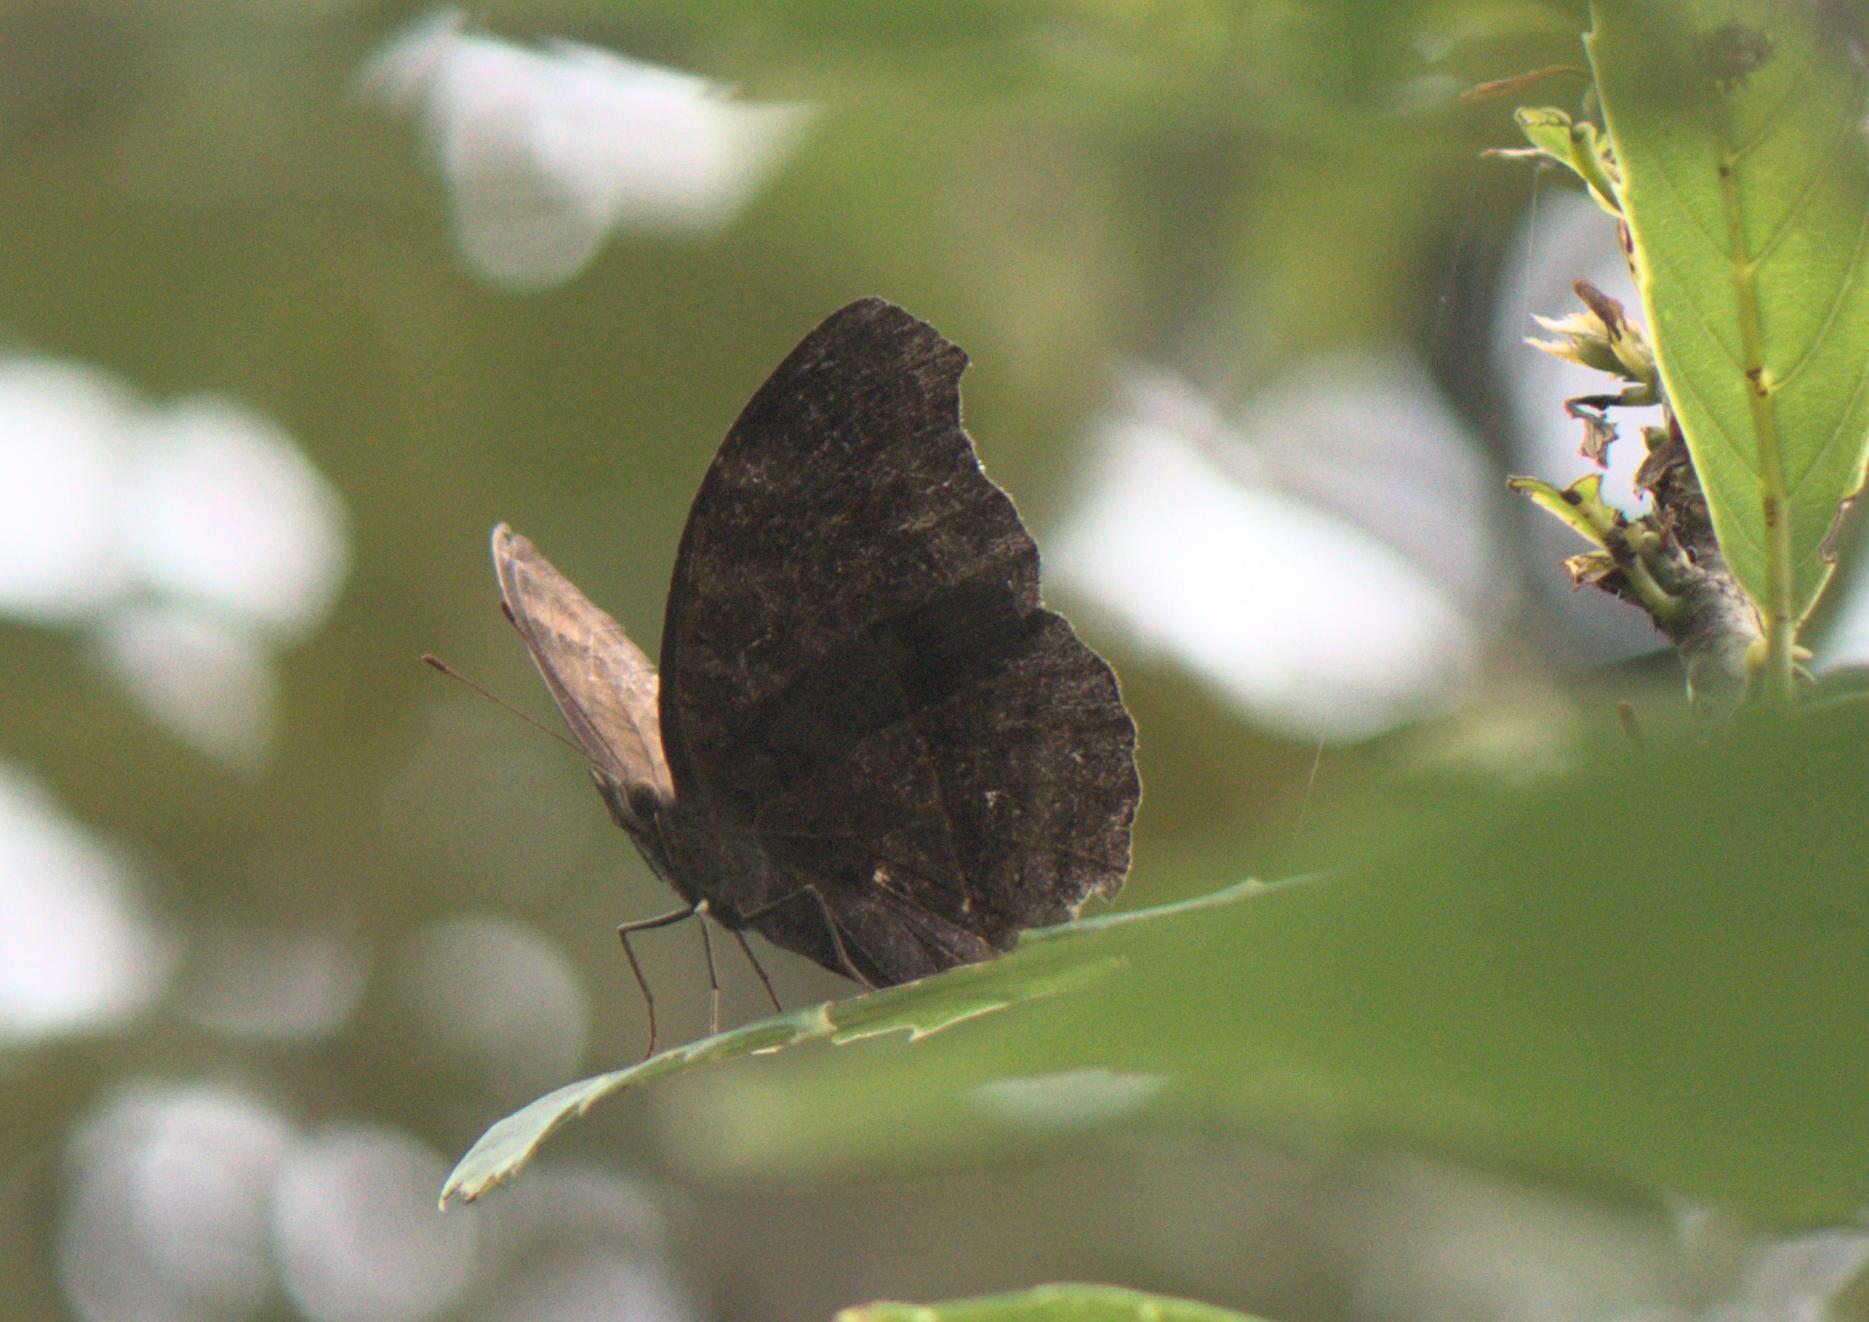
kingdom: Animalia
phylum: Arthropoda
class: Insecta
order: Lepidoptera
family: Nymphalidae
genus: Junonia
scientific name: Junonia iphita
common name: Chocolate pansy
